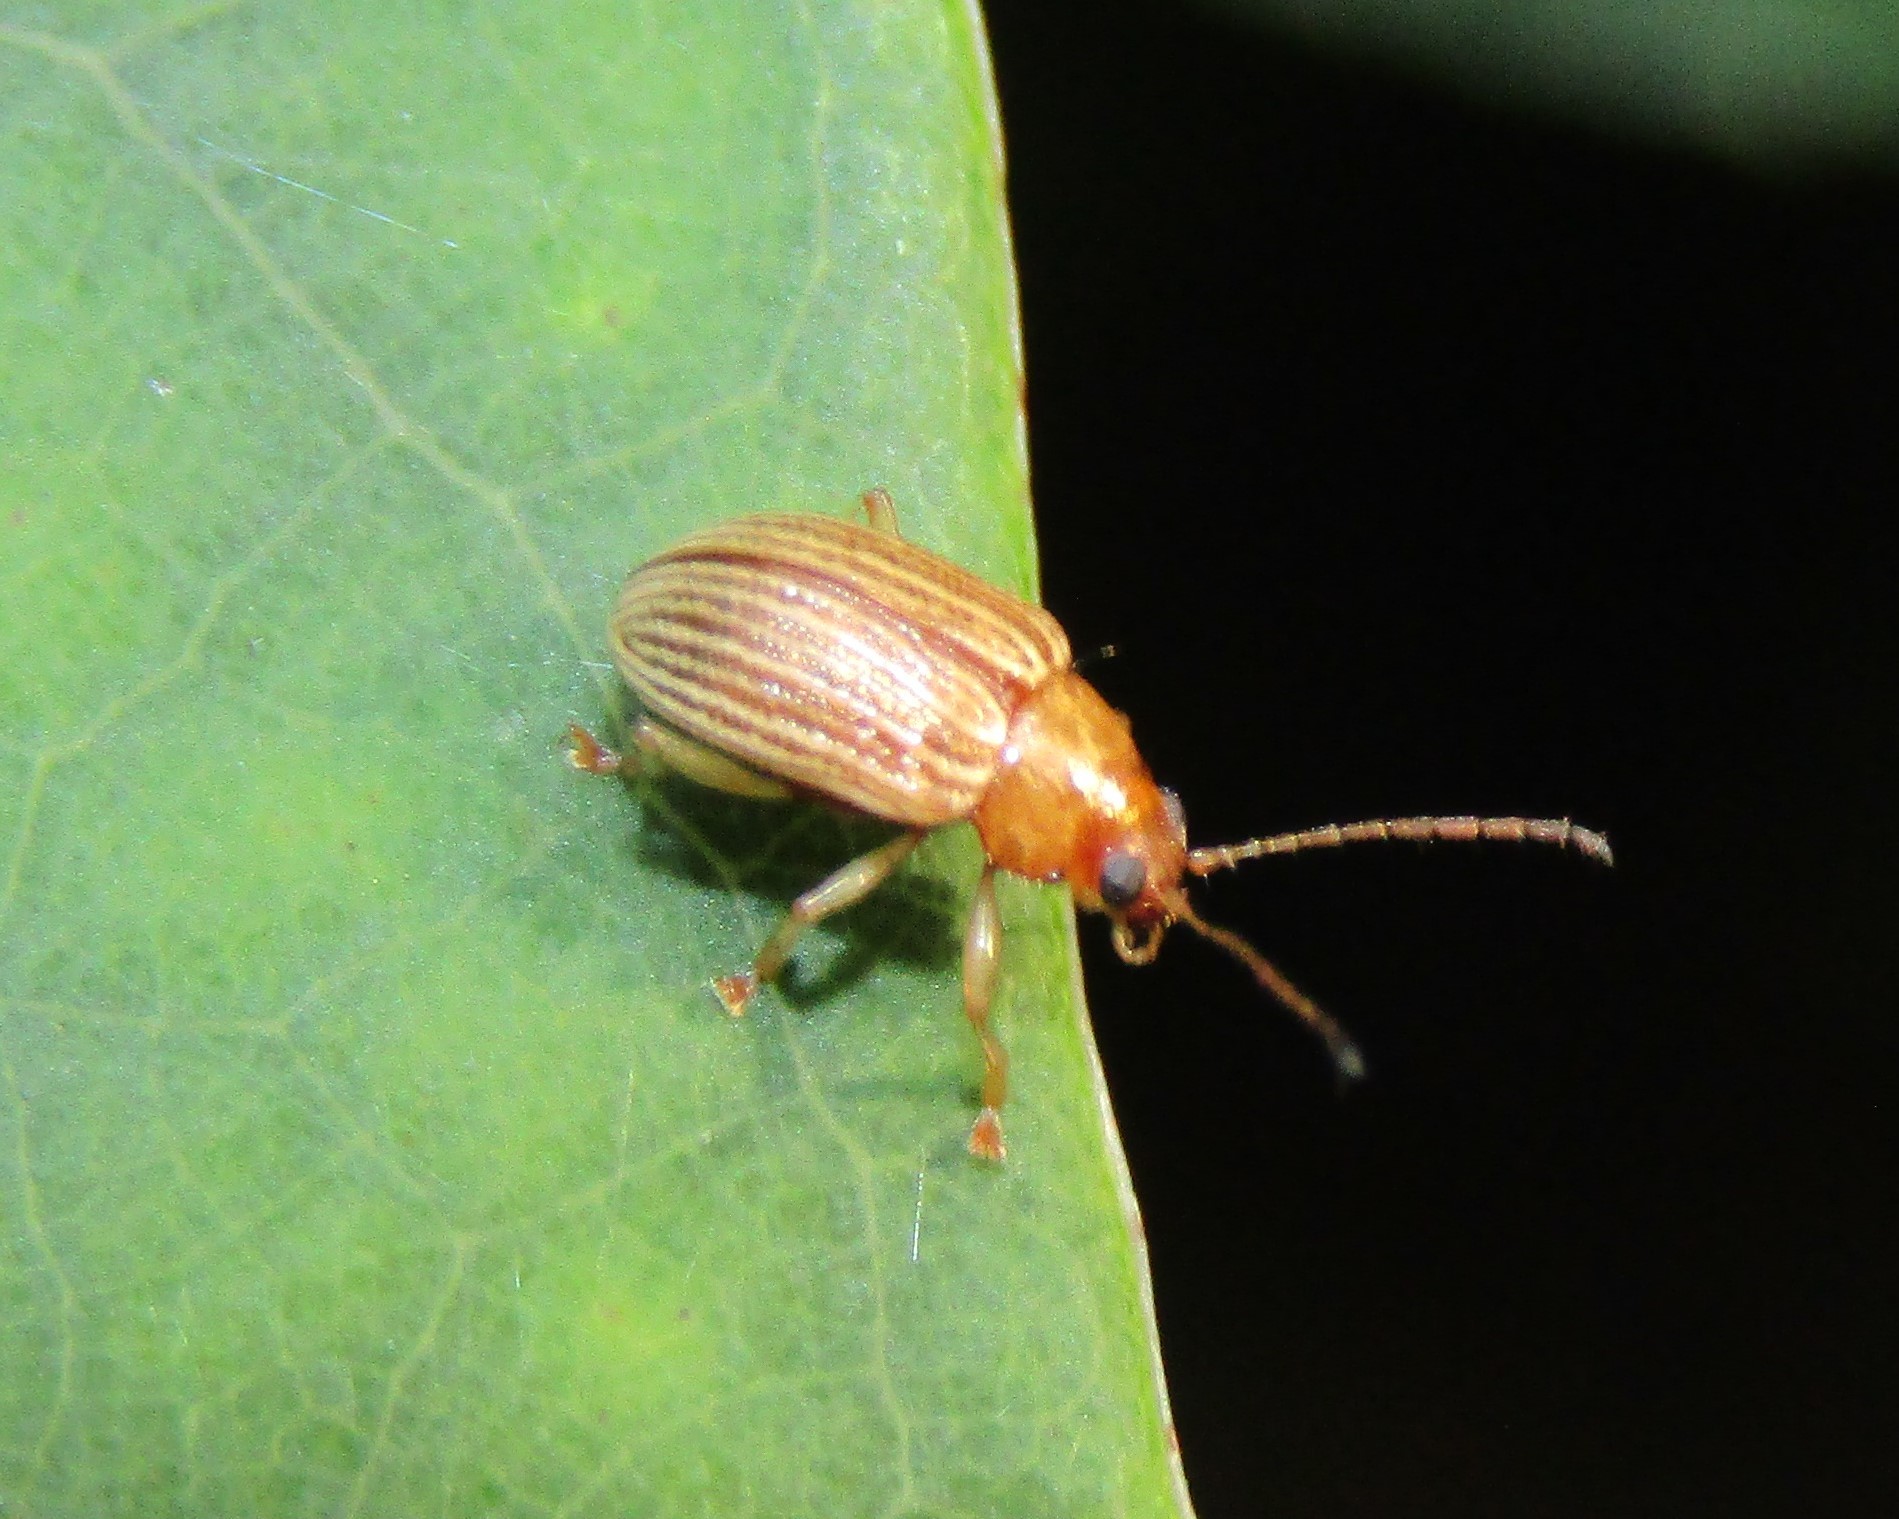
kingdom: Animalia
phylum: Arthropoda
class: Insecta
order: Coleoptera
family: Chrysomelidae
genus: Colaspis
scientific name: Colaspis brunnea
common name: Grape colaspis
